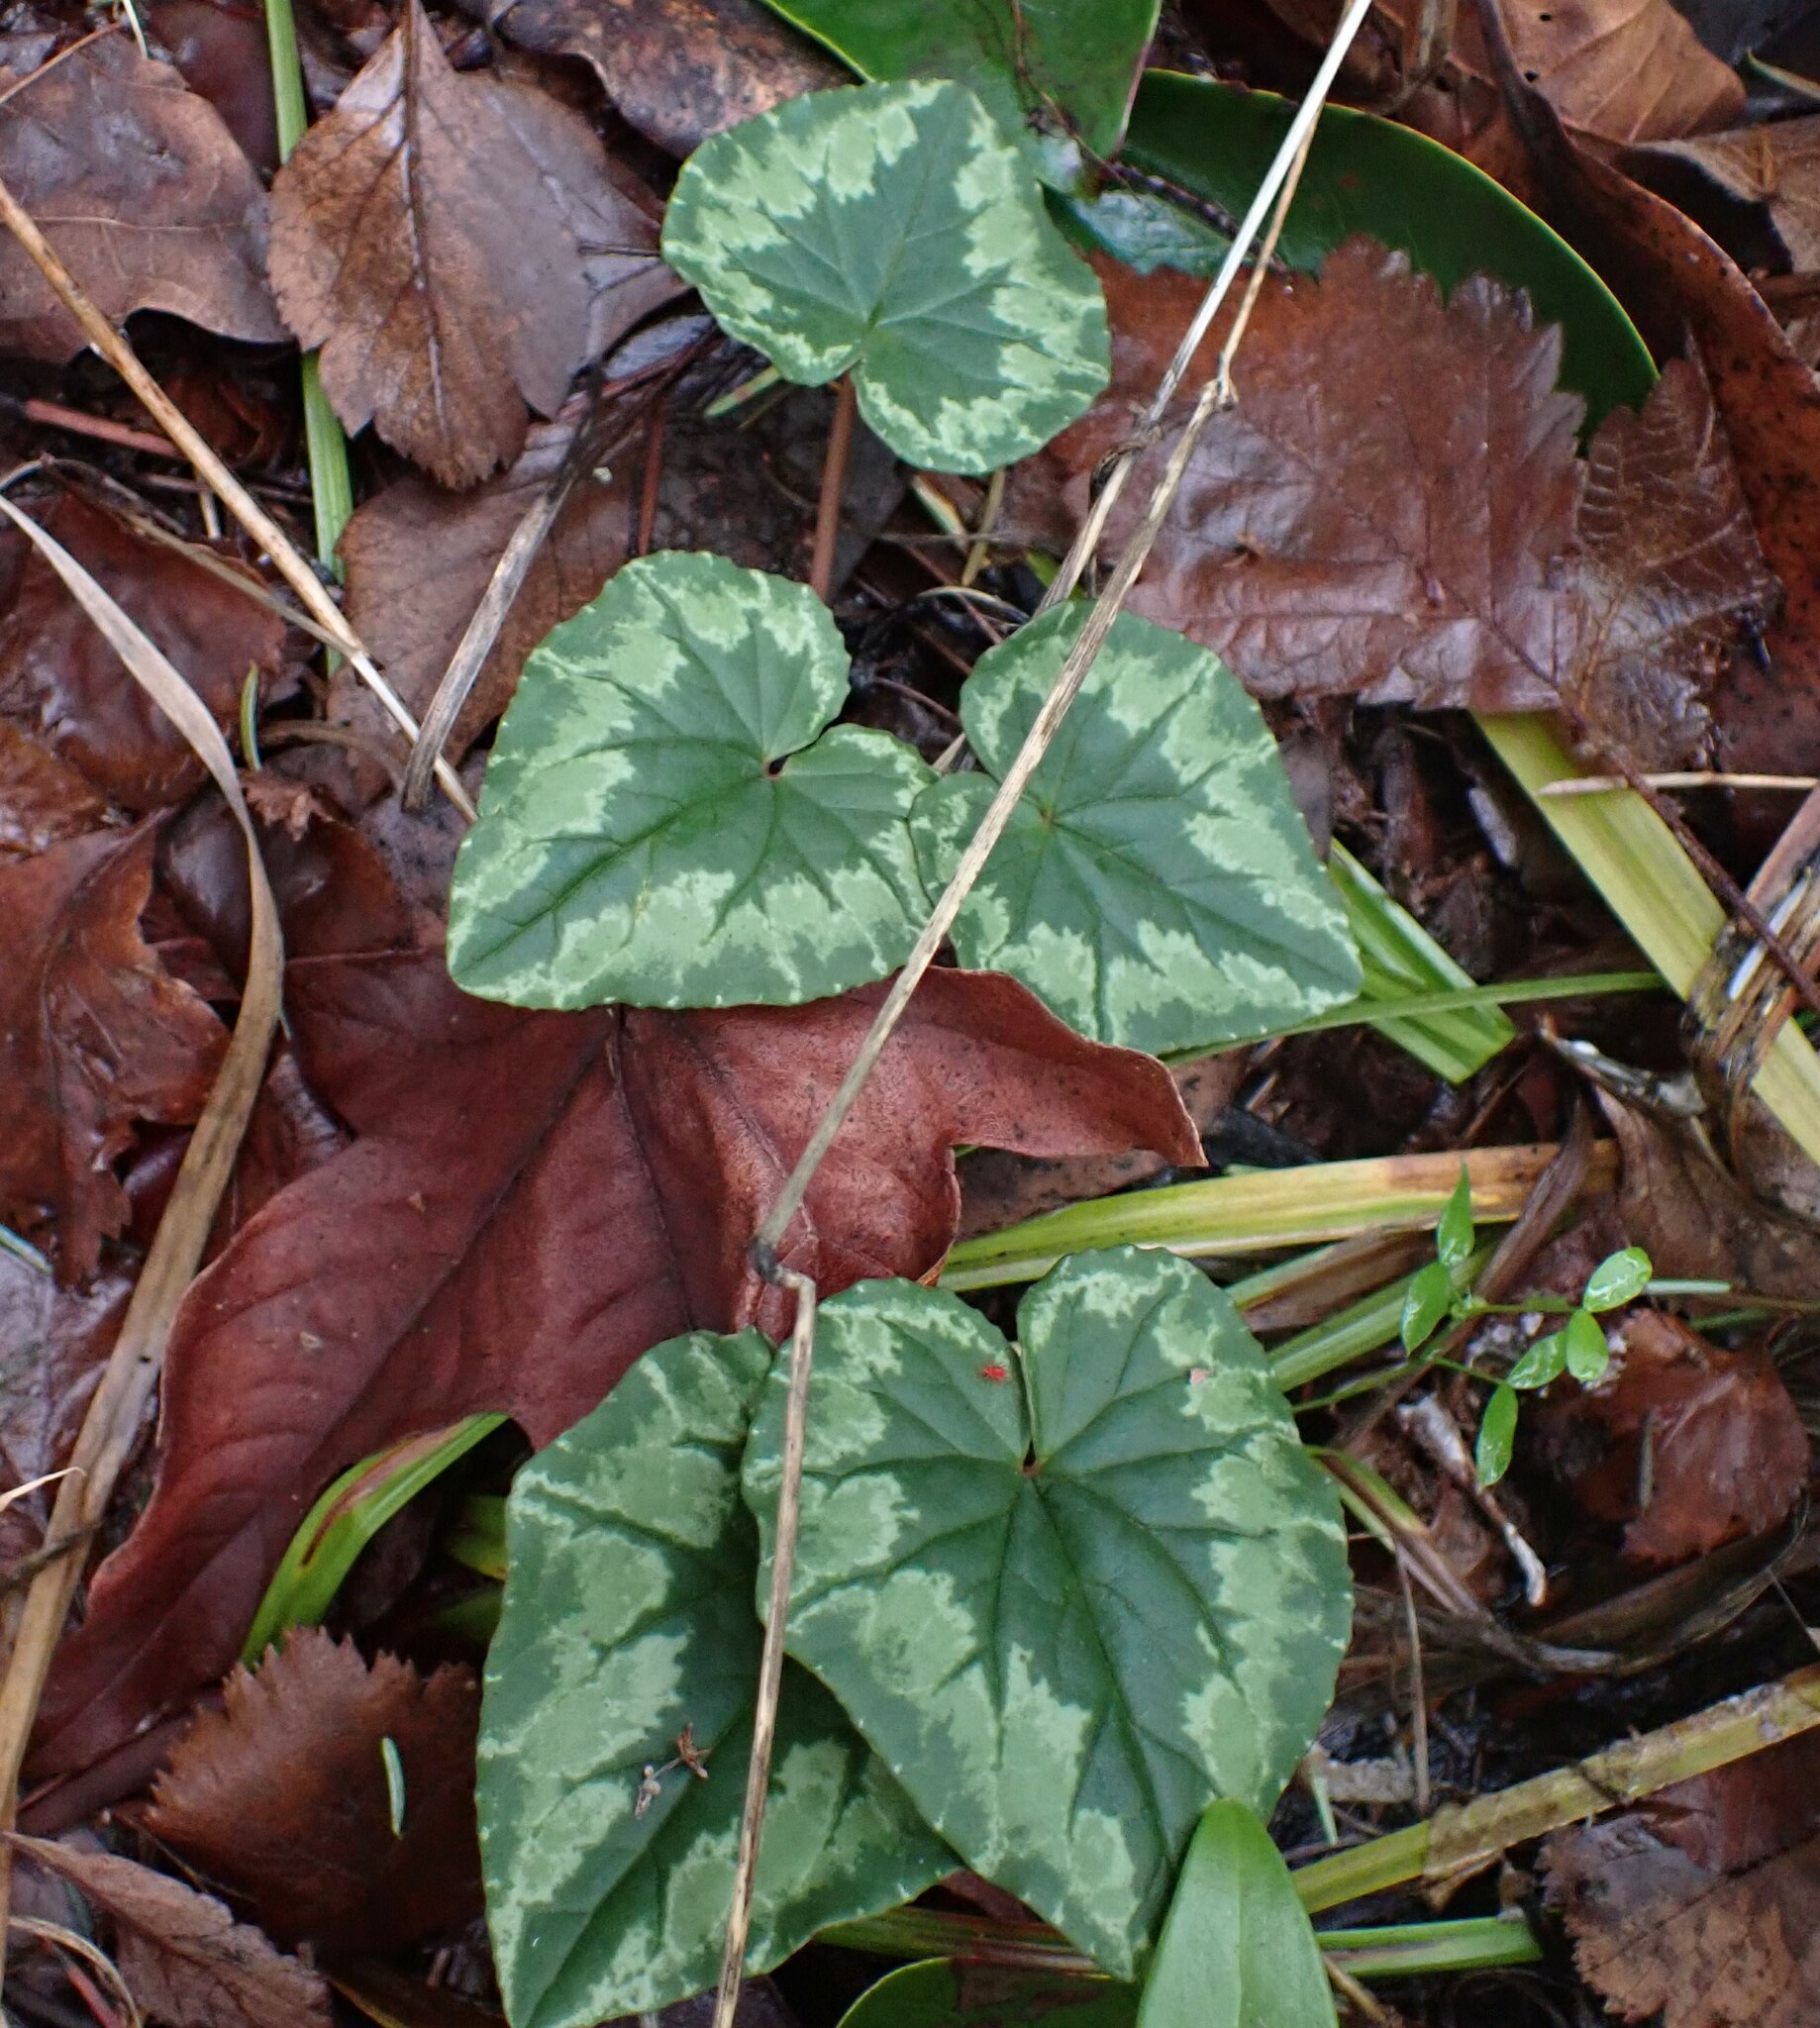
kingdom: Plantae
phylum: Tracheophyta
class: Magnoliopsida
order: Ericales
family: Primulaceae
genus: Cyclamen
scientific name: Cyclamen hederifolium
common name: Sowbread
